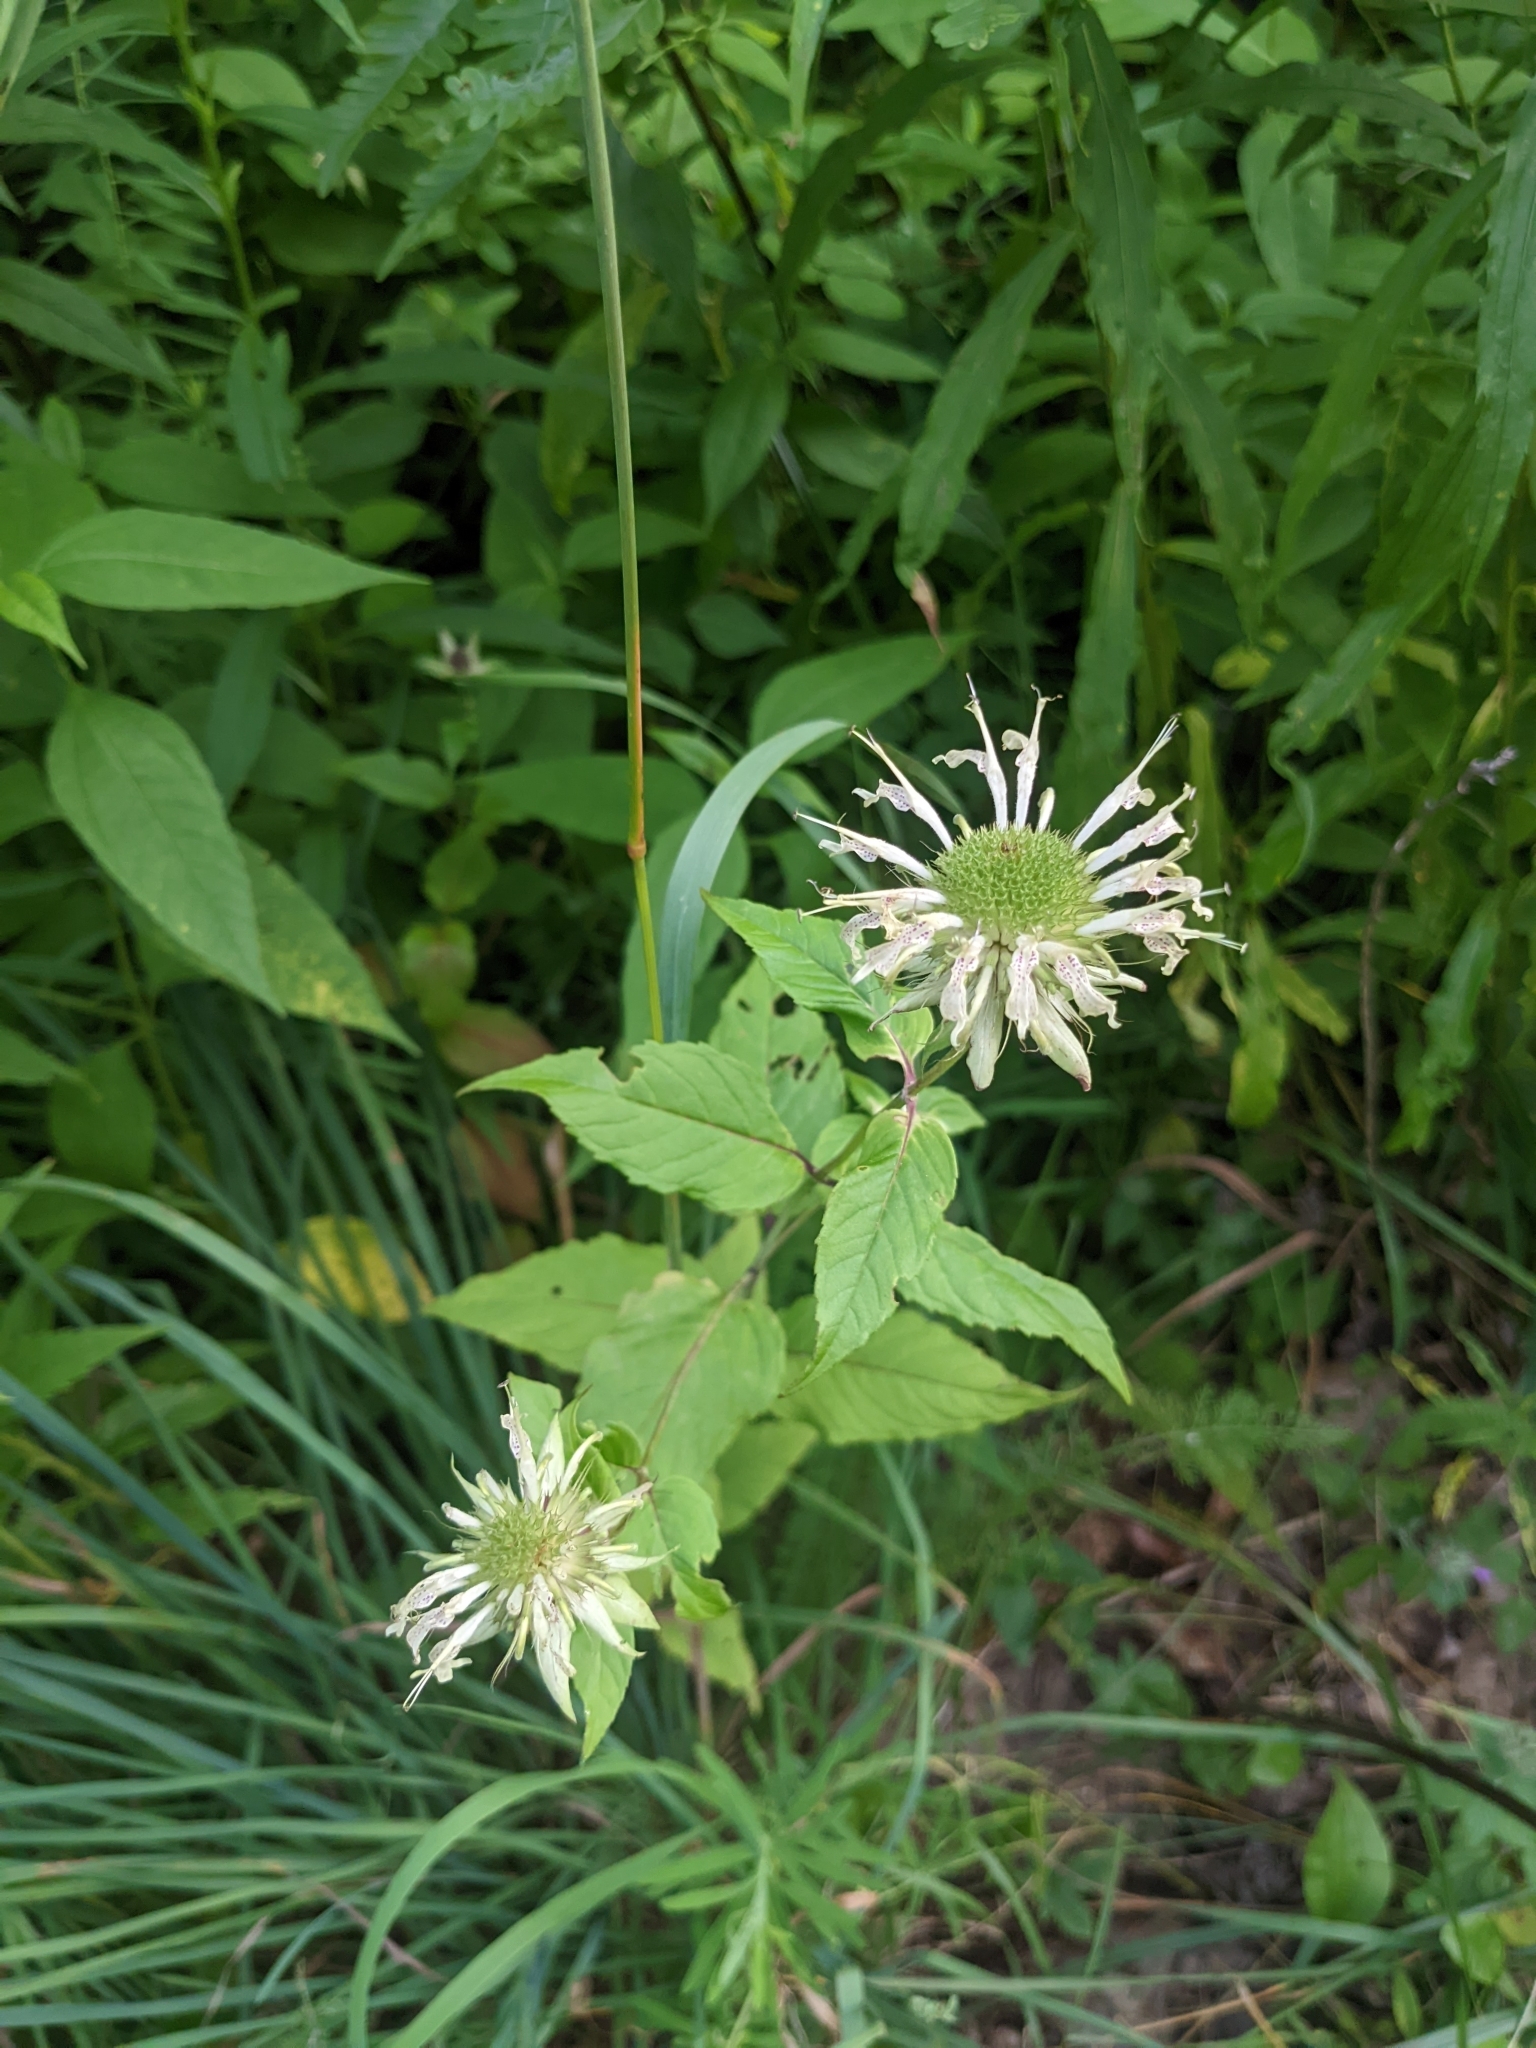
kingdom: Plantae
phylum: Tracheophyta
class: Magnoliopsida
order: Lamiales
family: Lamiaceae
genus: Monarda
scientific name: Monarda clinopodia
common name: Basil beebalm
